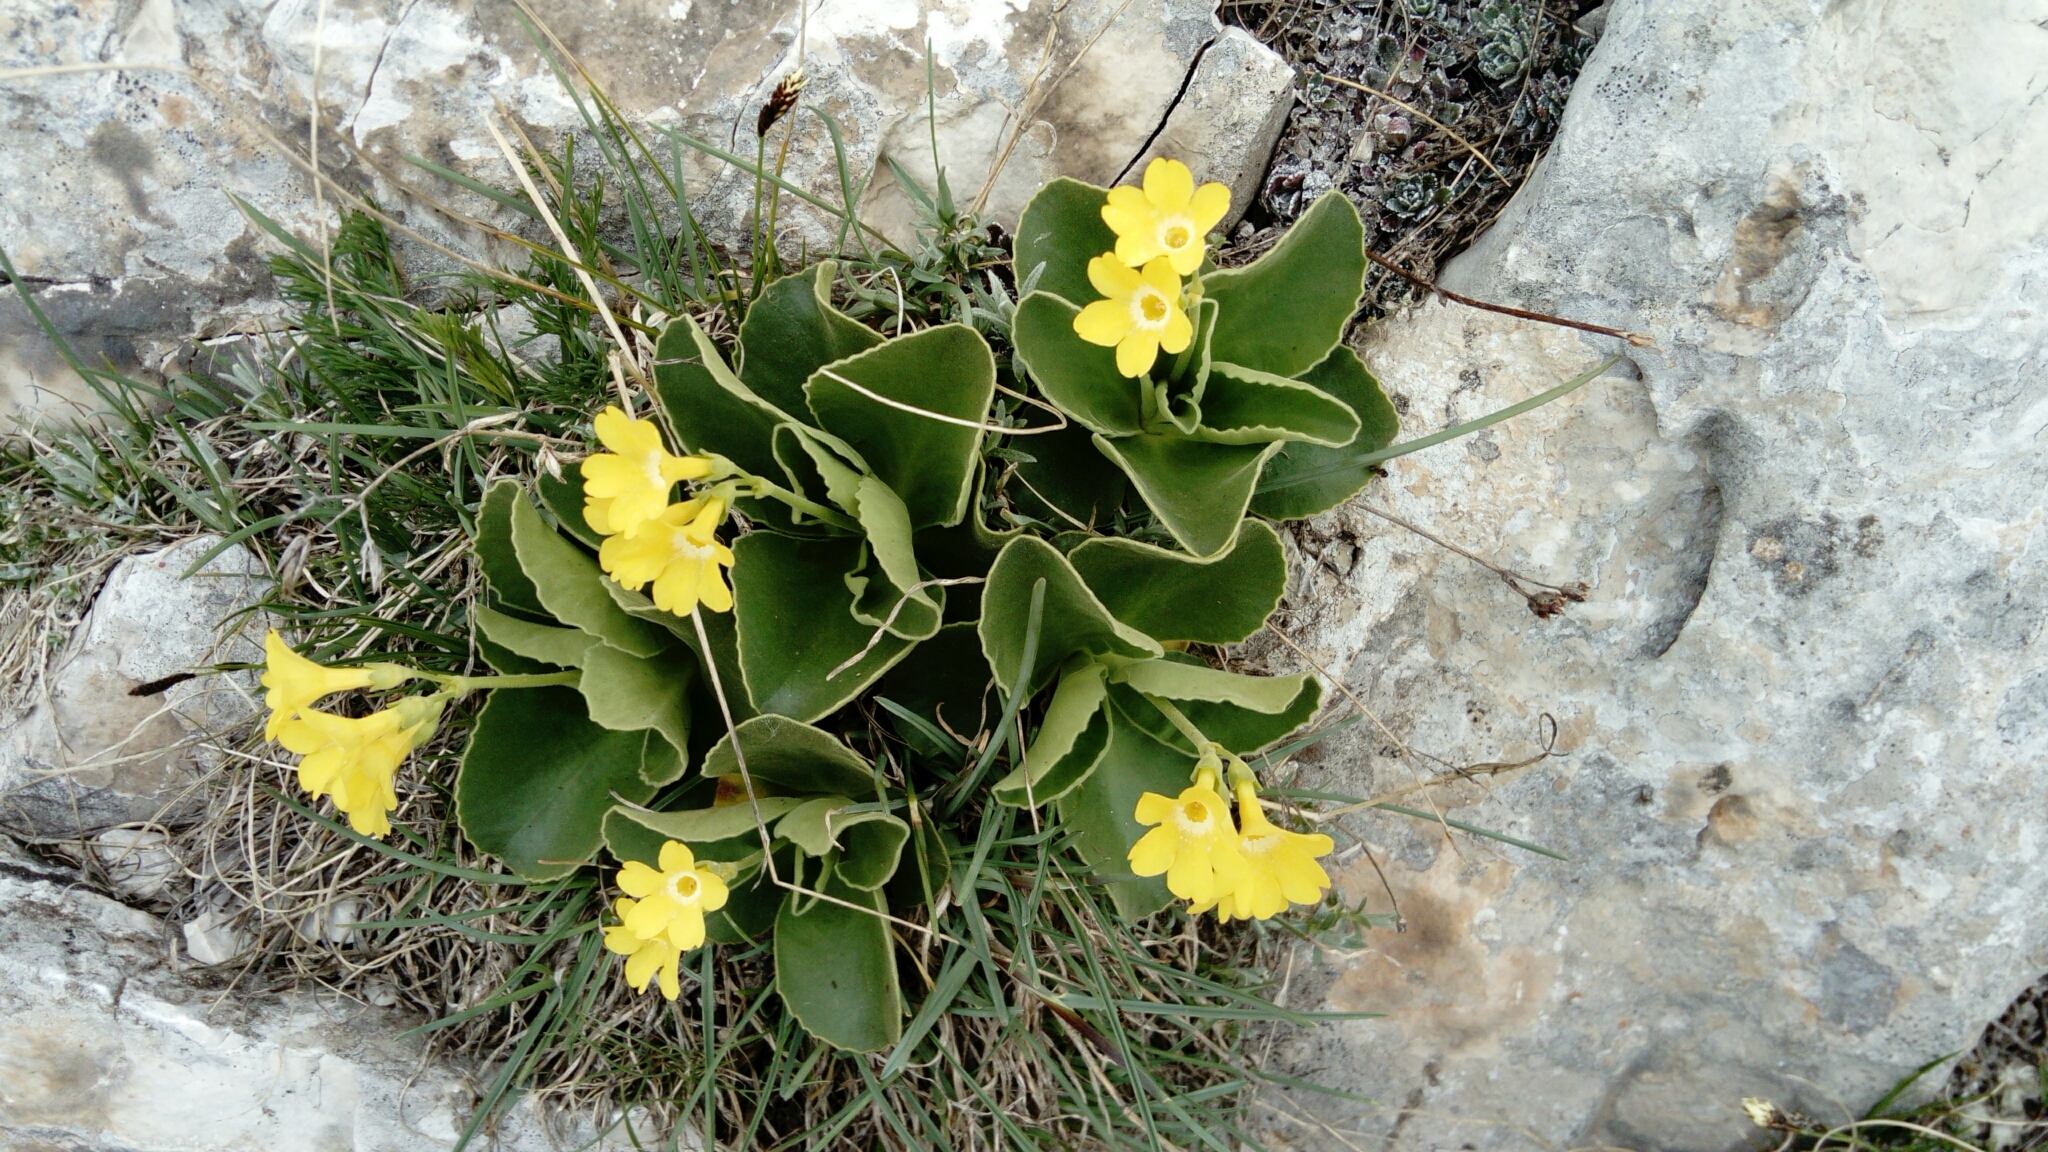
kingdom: Plantae
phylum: Tracheophyta
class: Magnoliopsida
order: Ericales
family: Primulaceae
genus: Primula
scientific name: Primula auricula
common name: Auricula
